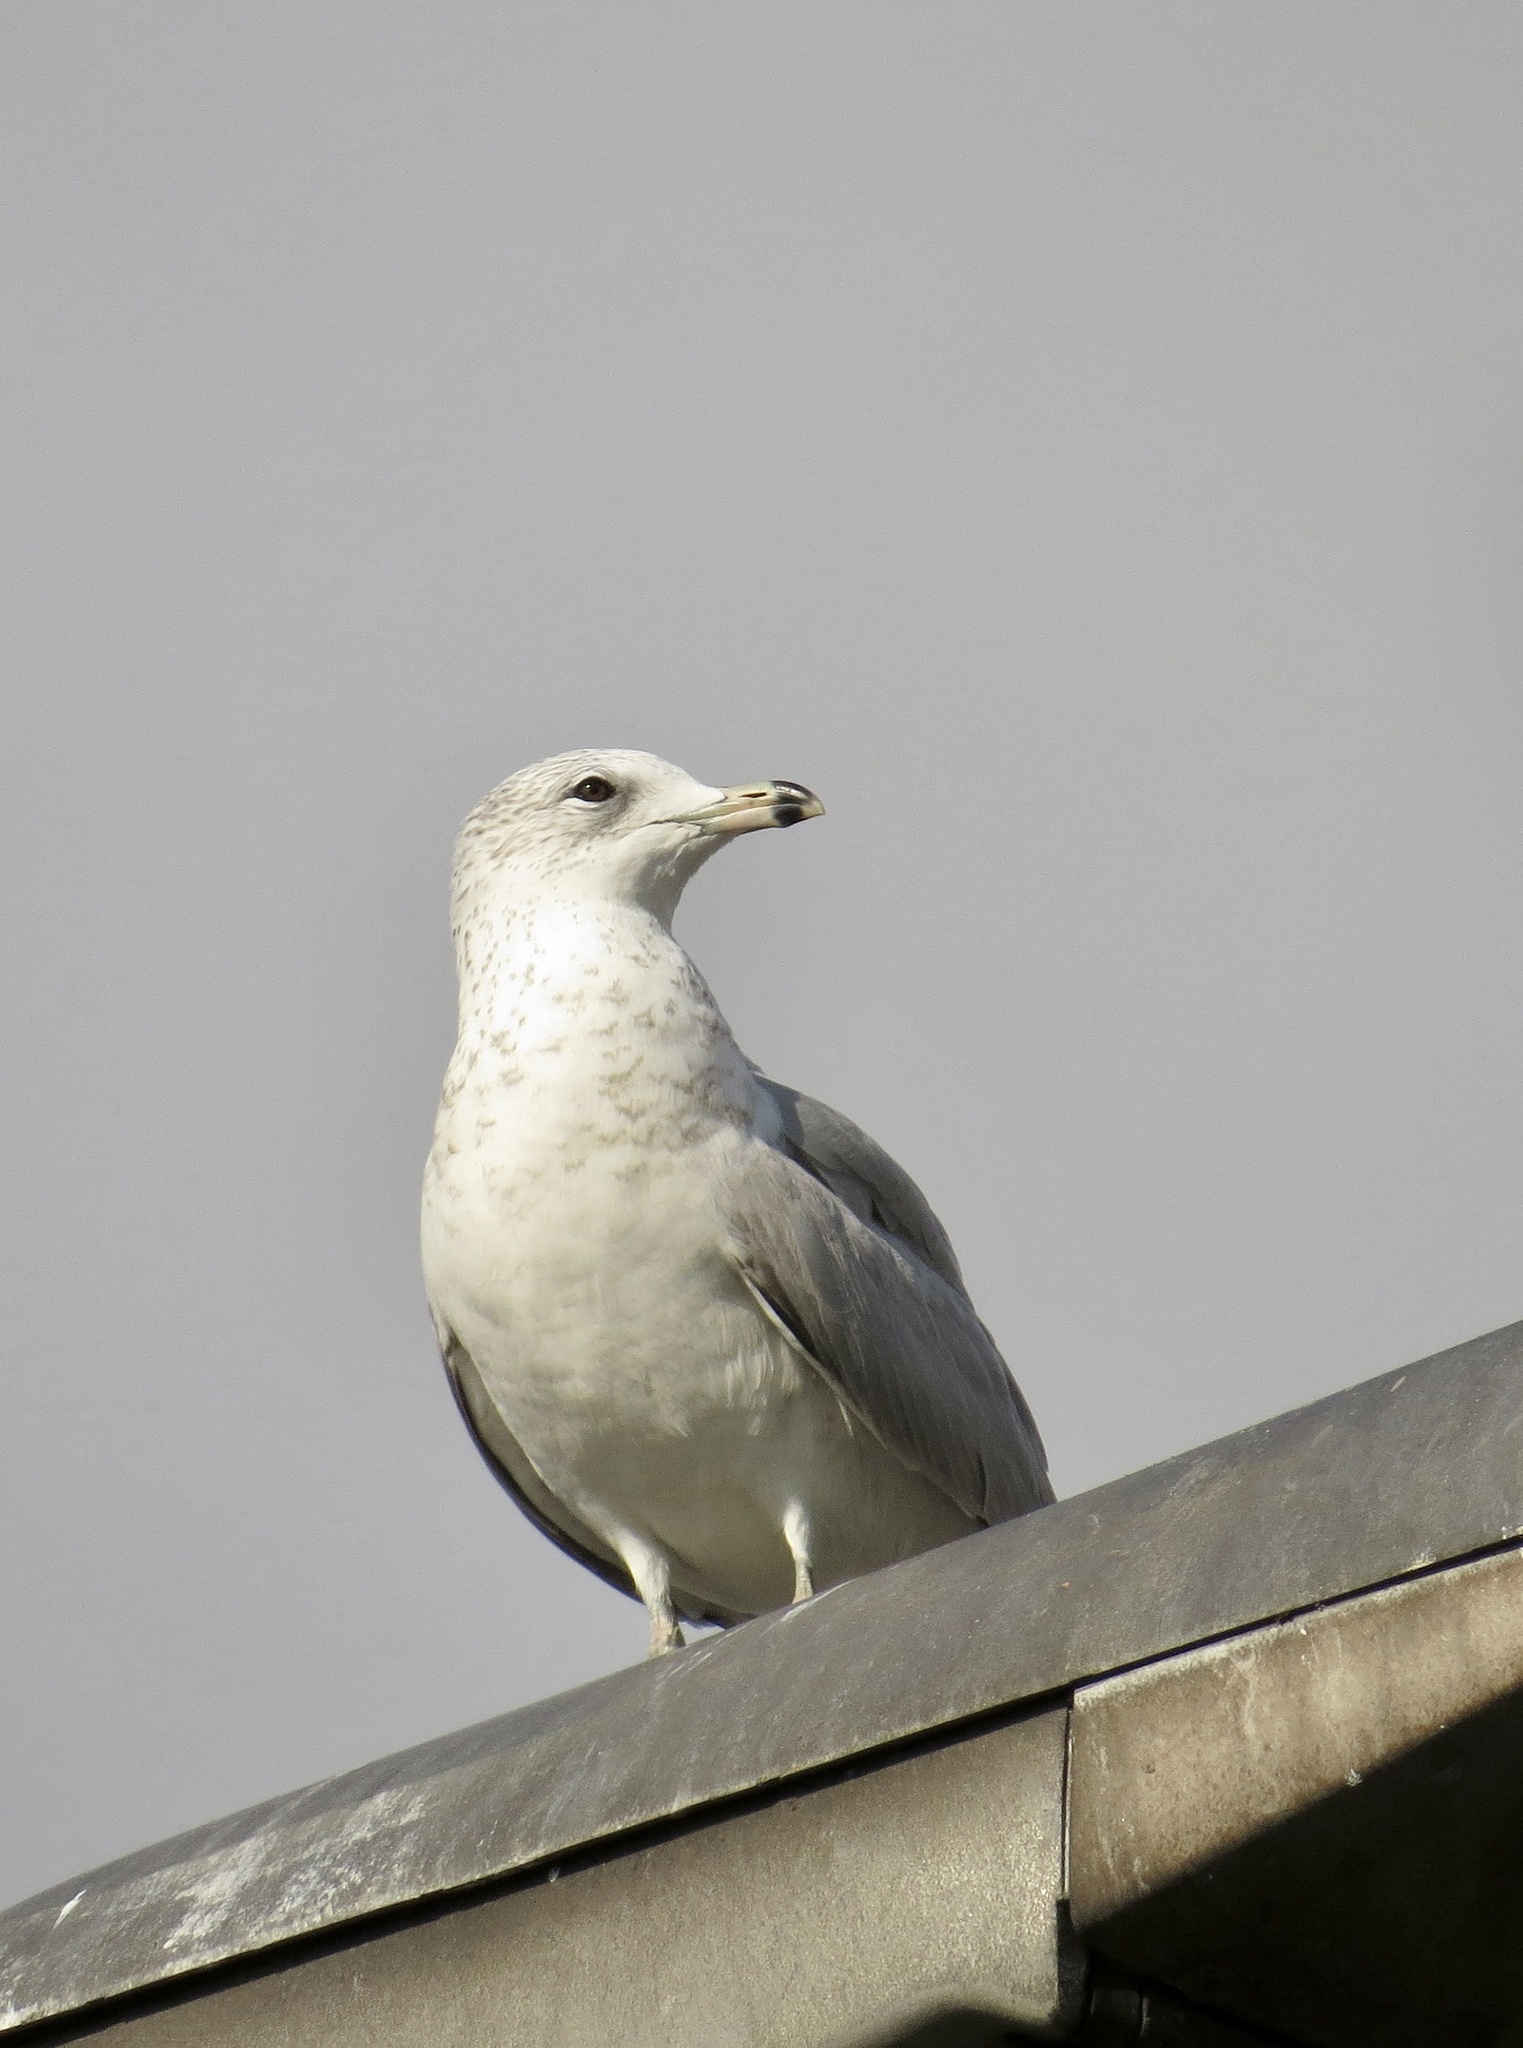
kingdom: Animalia
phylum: Chordata
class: Aves
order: Charadriiformes
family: Laridae
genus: Larus
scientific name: Larus delawarensis
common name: Ring-billed gull
